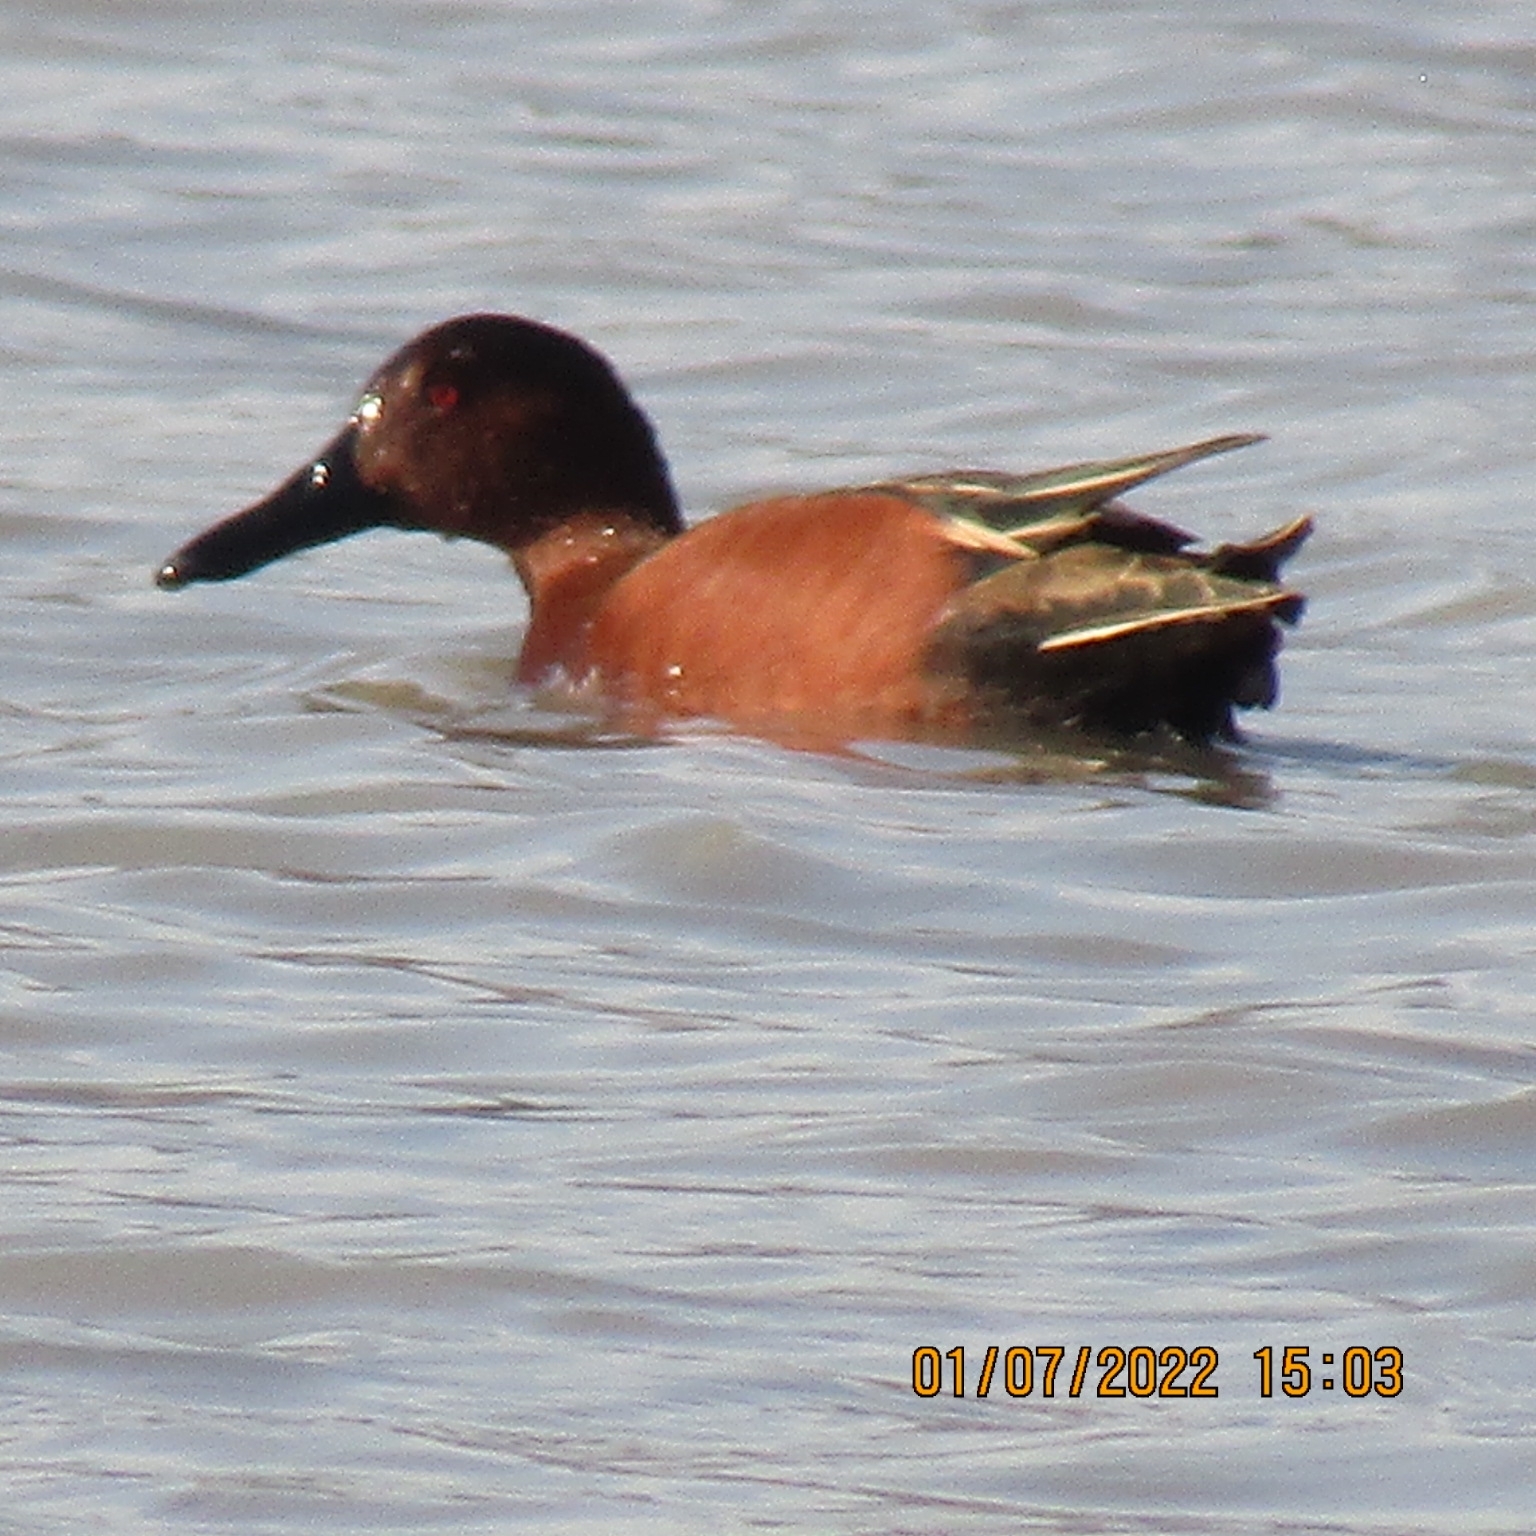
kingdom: Animalia
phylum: Chordata
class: Aves
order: Anseriformes
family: Anatidae
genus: Spatula
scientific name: Spatula cyanoptera
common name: Cinnamon teal
